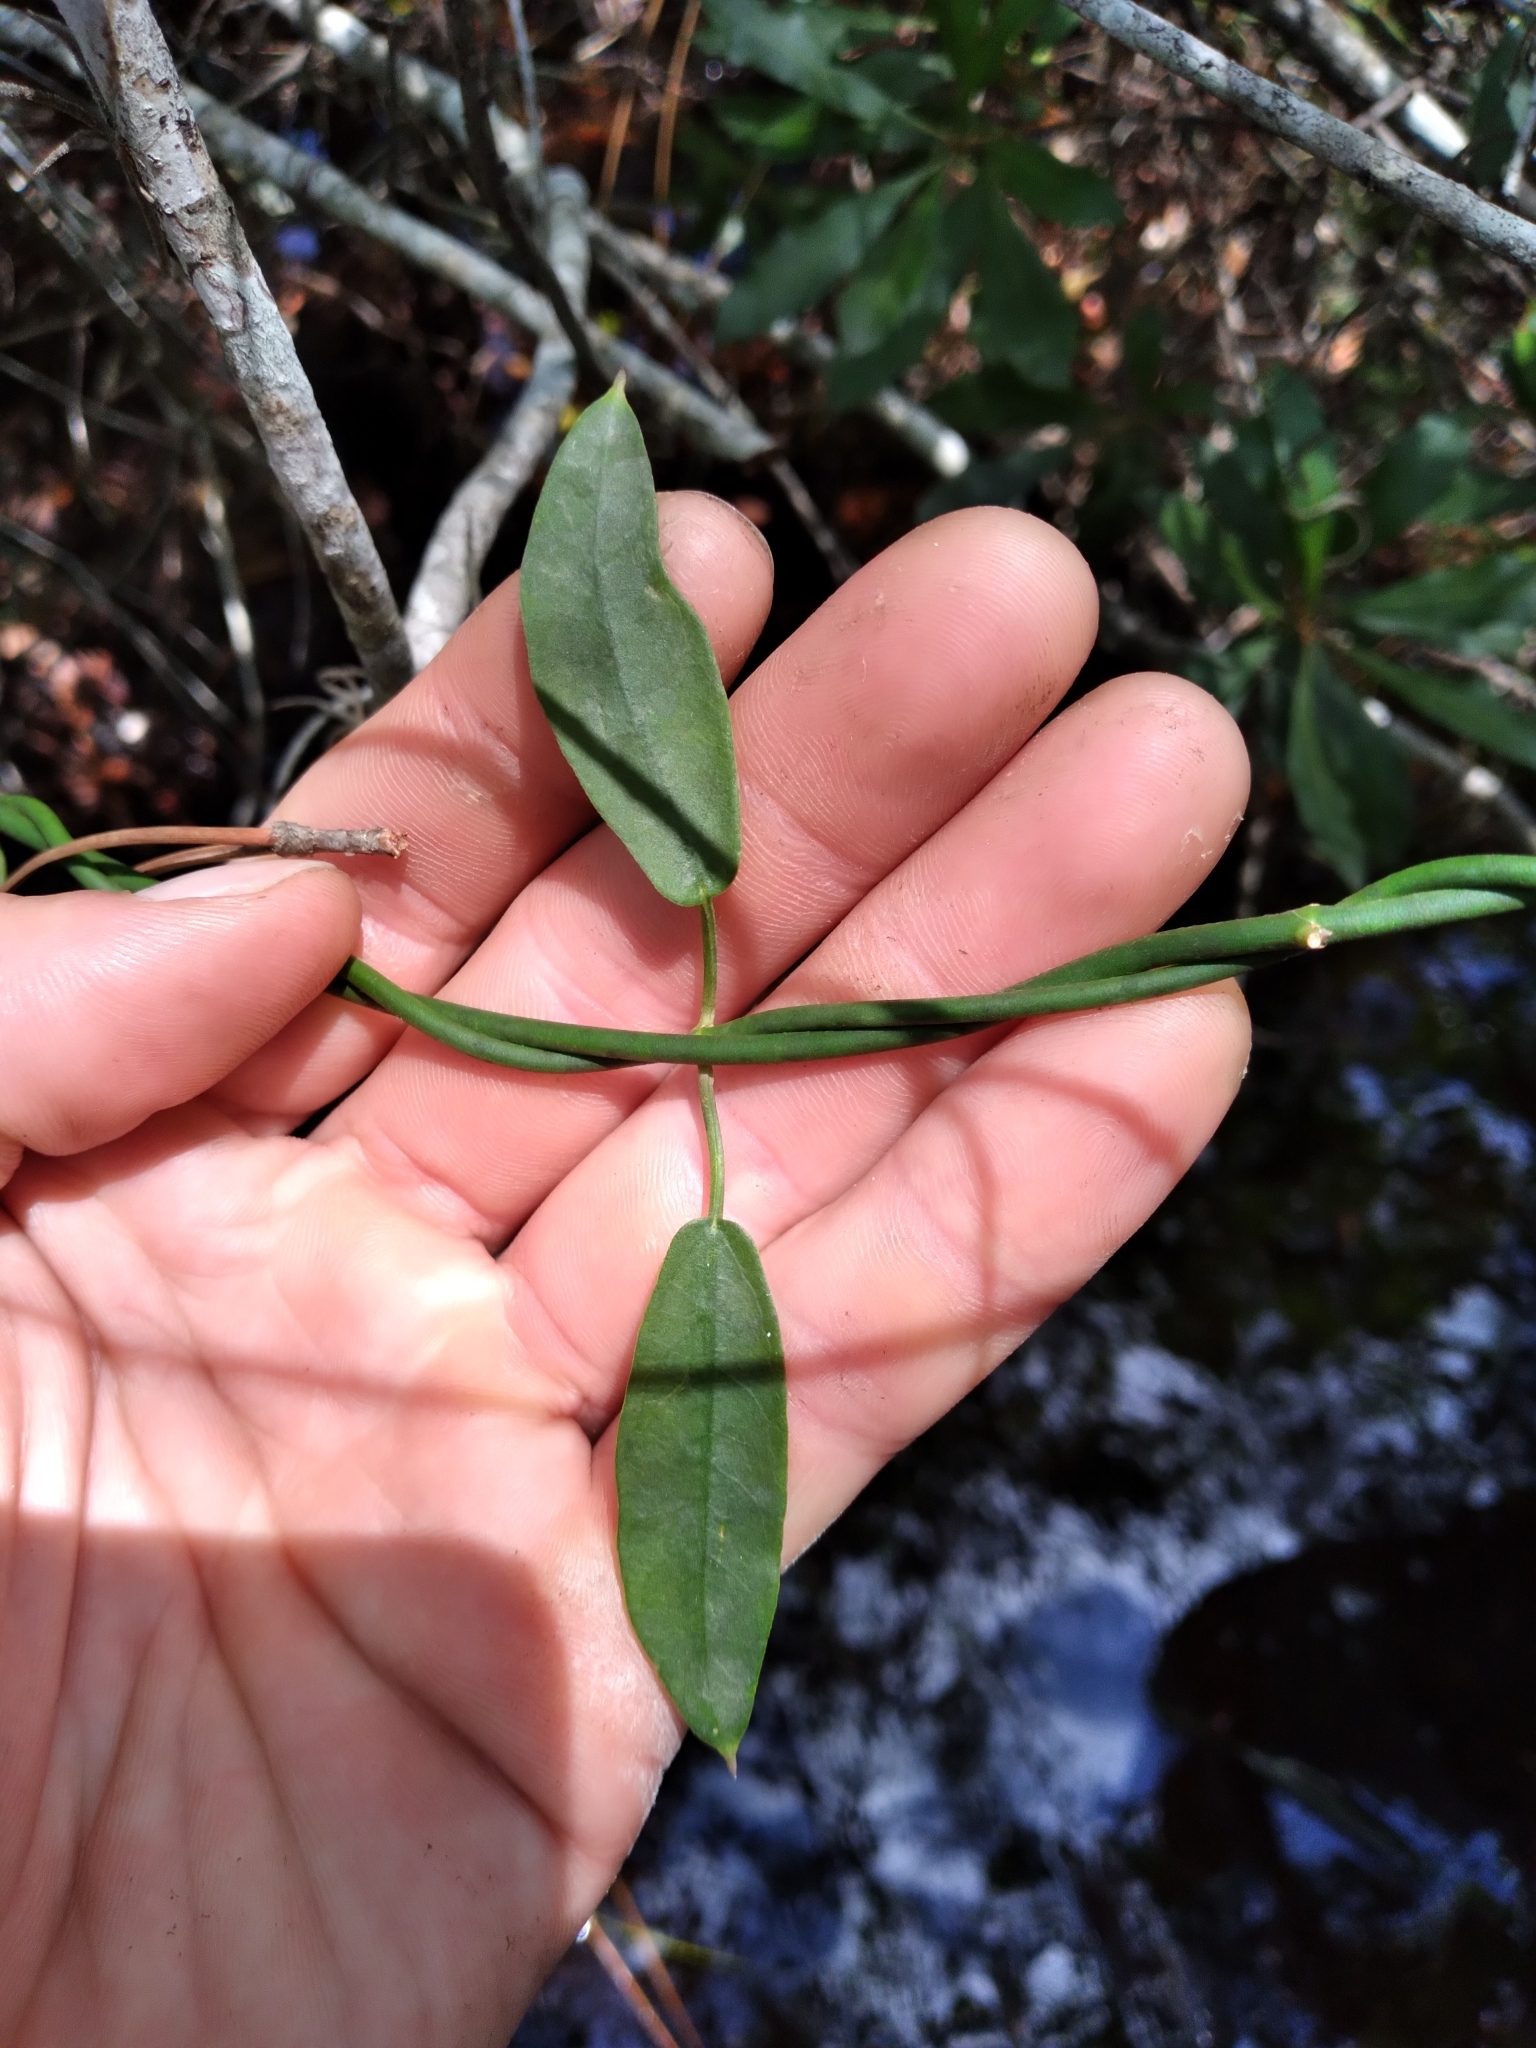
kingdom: Plantae
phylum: Tracheophyta
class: Magnoliopsida
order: Gentianales
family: Apocynaceae
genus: Funastrum
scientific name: Funastrum clausum
